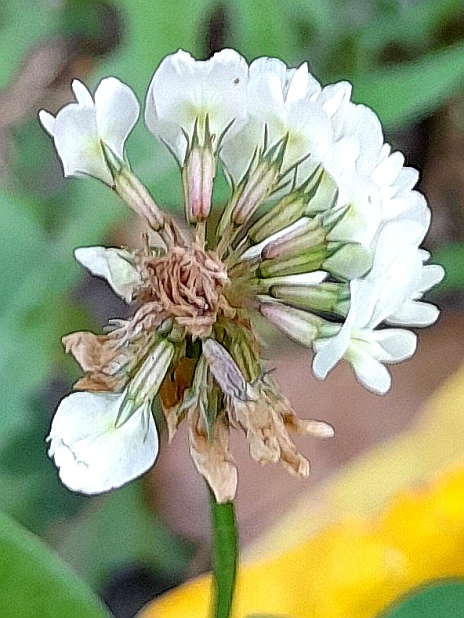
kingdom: Plantae
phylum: Tracheophyta
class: Magnoliopsida
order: Fabales
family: Fabaceae
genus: Trifolium
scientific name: Trifolium repens
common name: White clover
